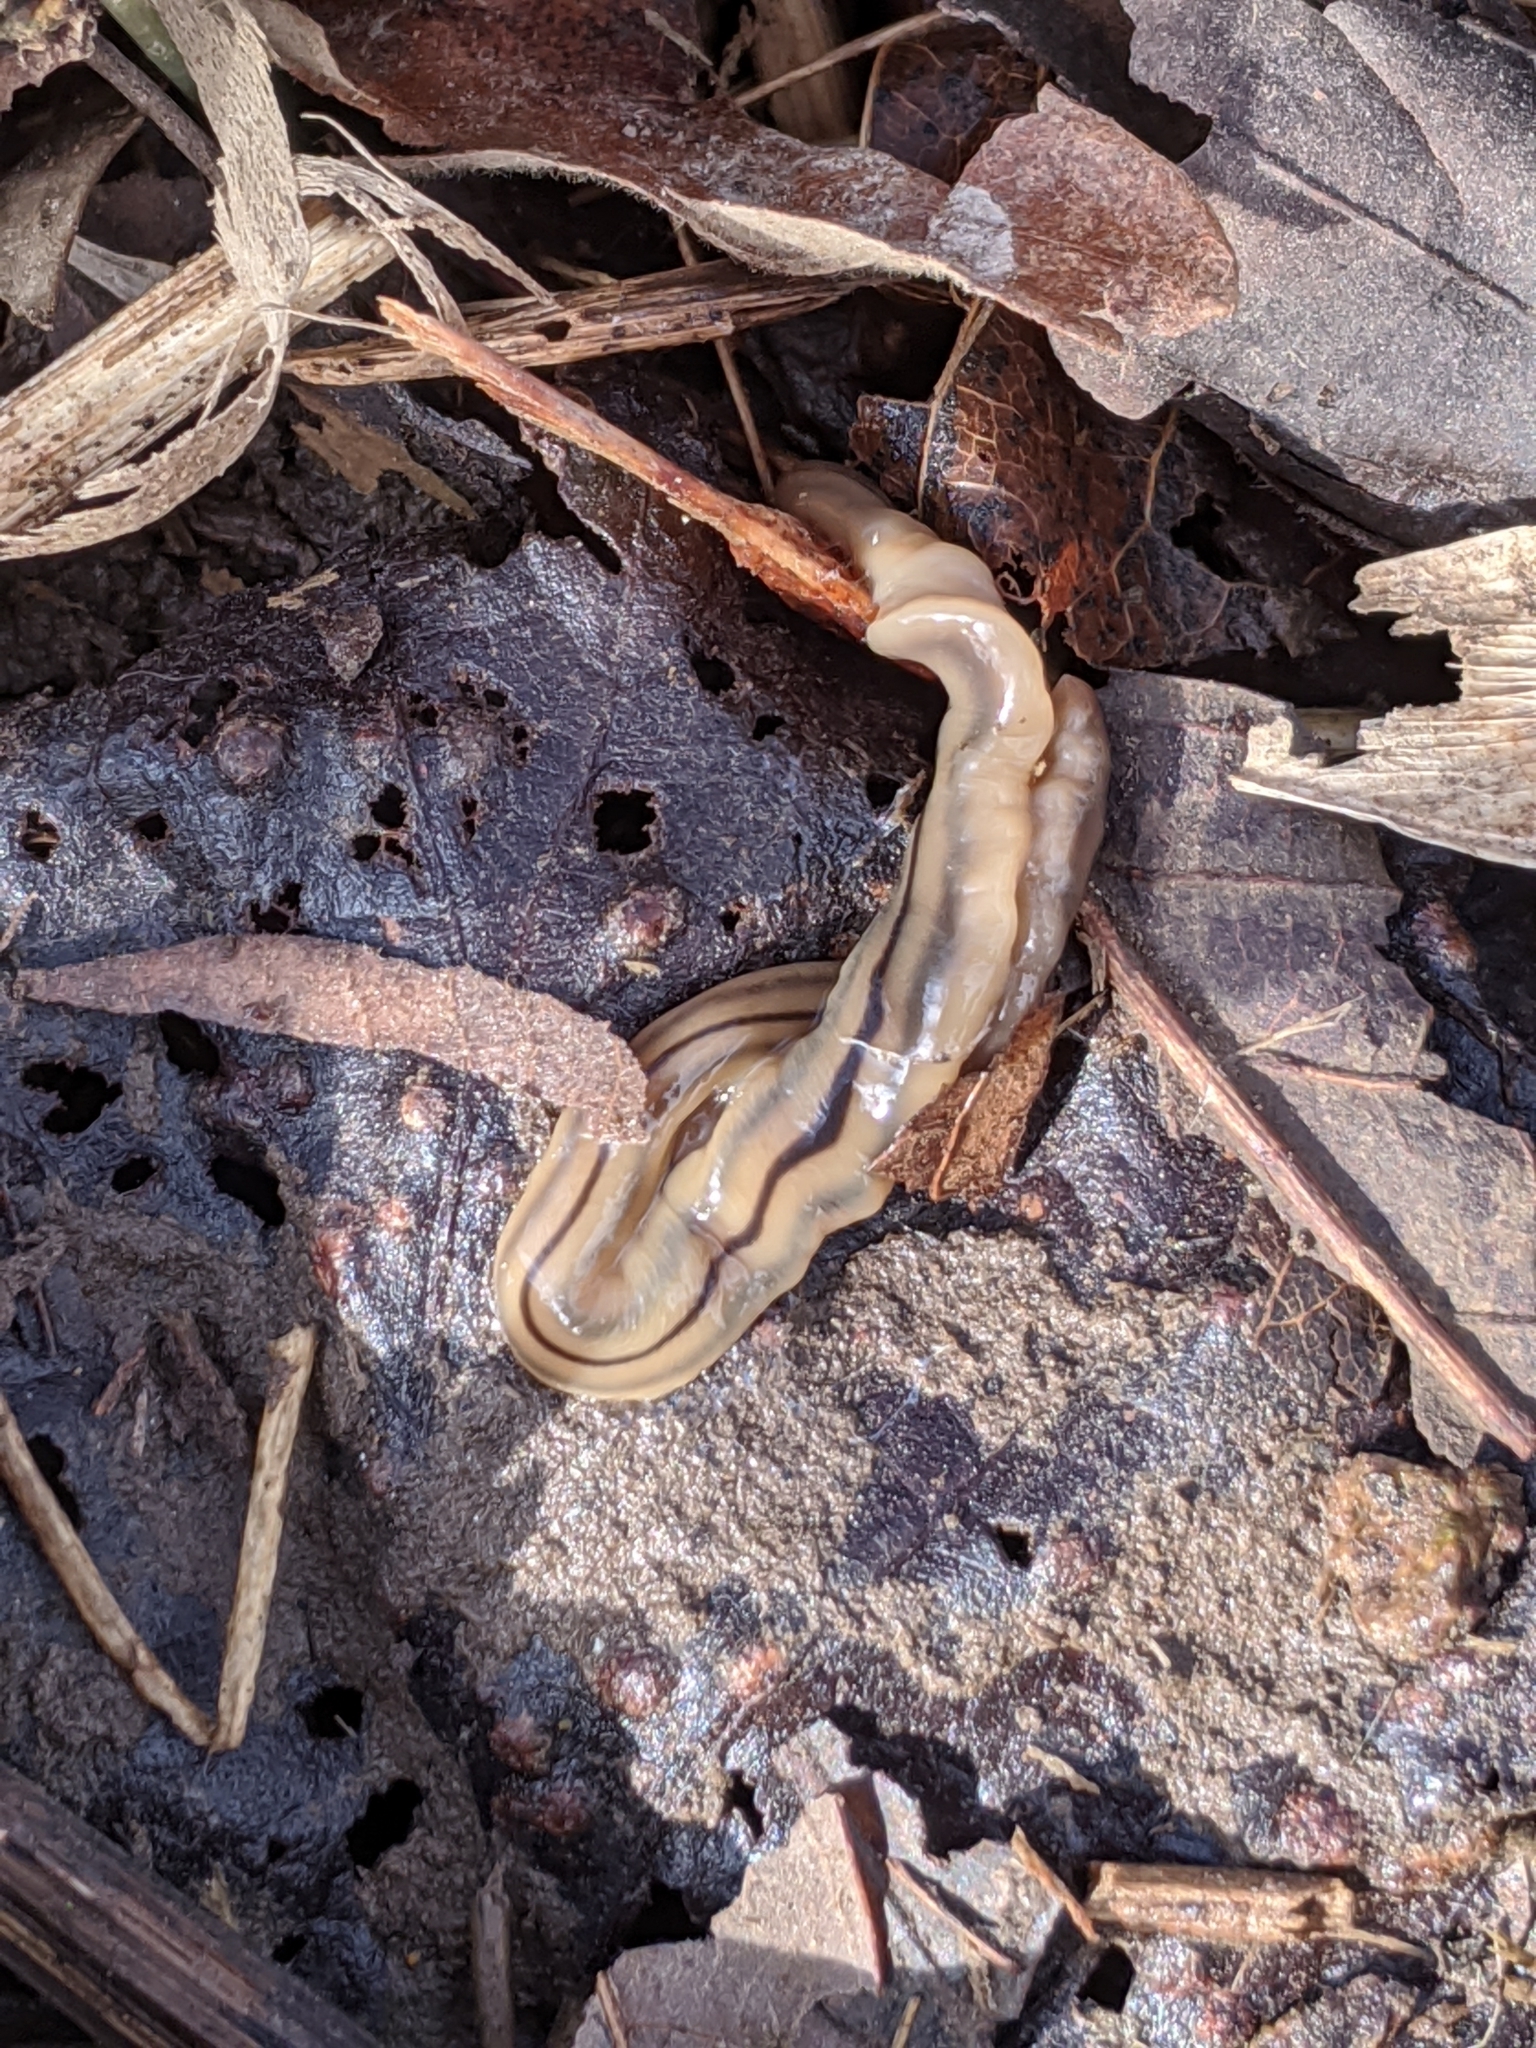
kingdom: Animalia
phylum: Platyhelminthes
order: Tricladida
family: Geoplanidae
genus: Bipalium
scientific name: Bipalium pennsylvanicum
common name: Three-lined land planarian
